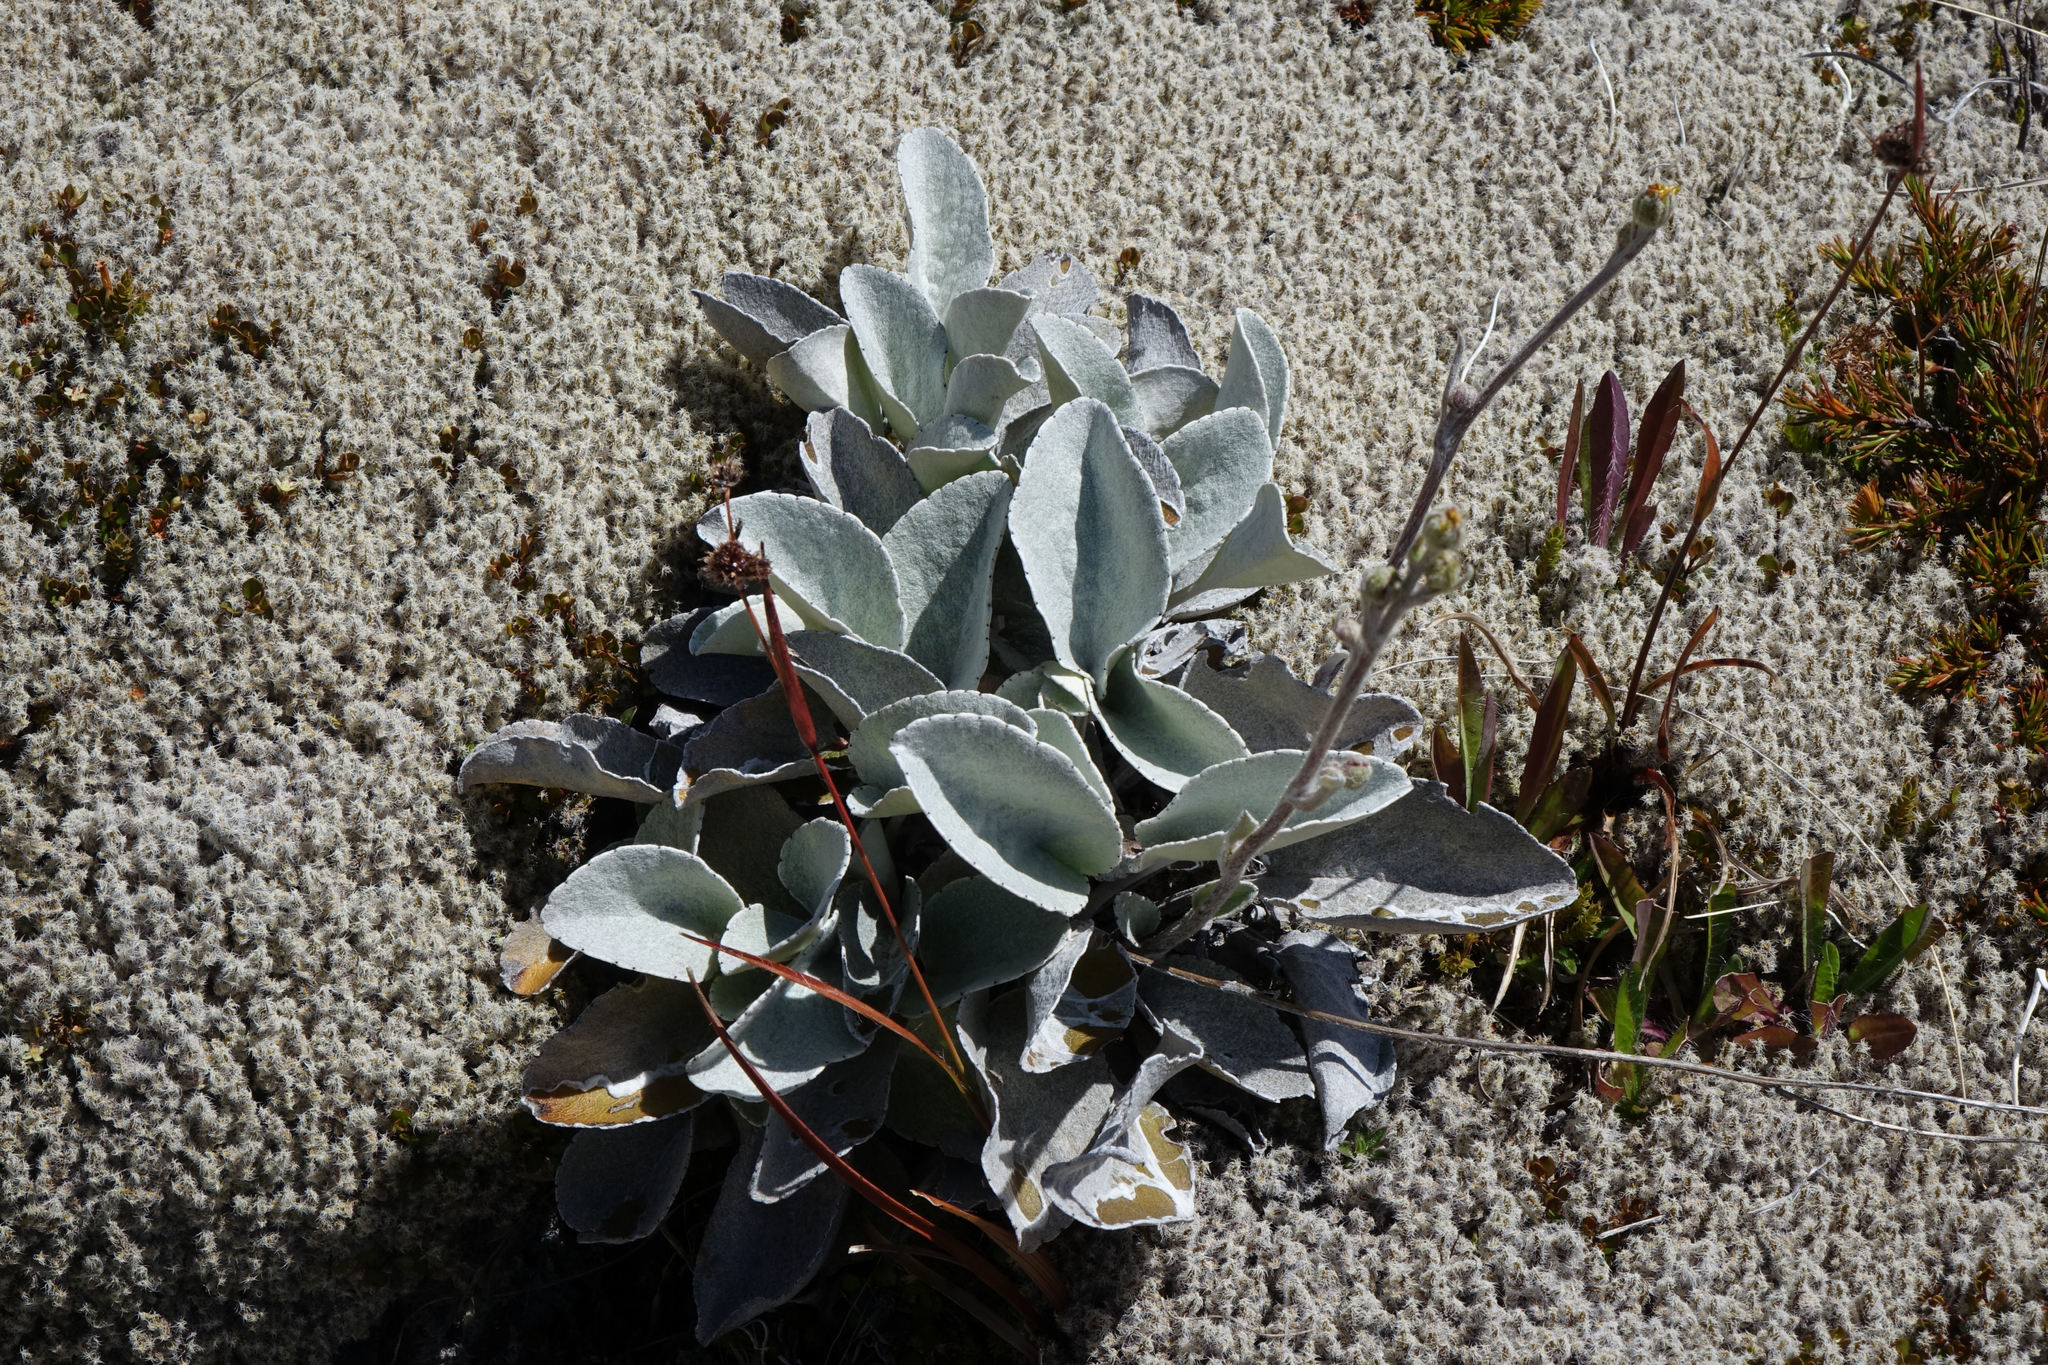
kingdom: Plantae
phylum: Tracheophyta
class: Magnoliopsida
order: Asterales
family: Asteraceae
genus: Brachyglottis
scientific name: Brachyglottis haastii
